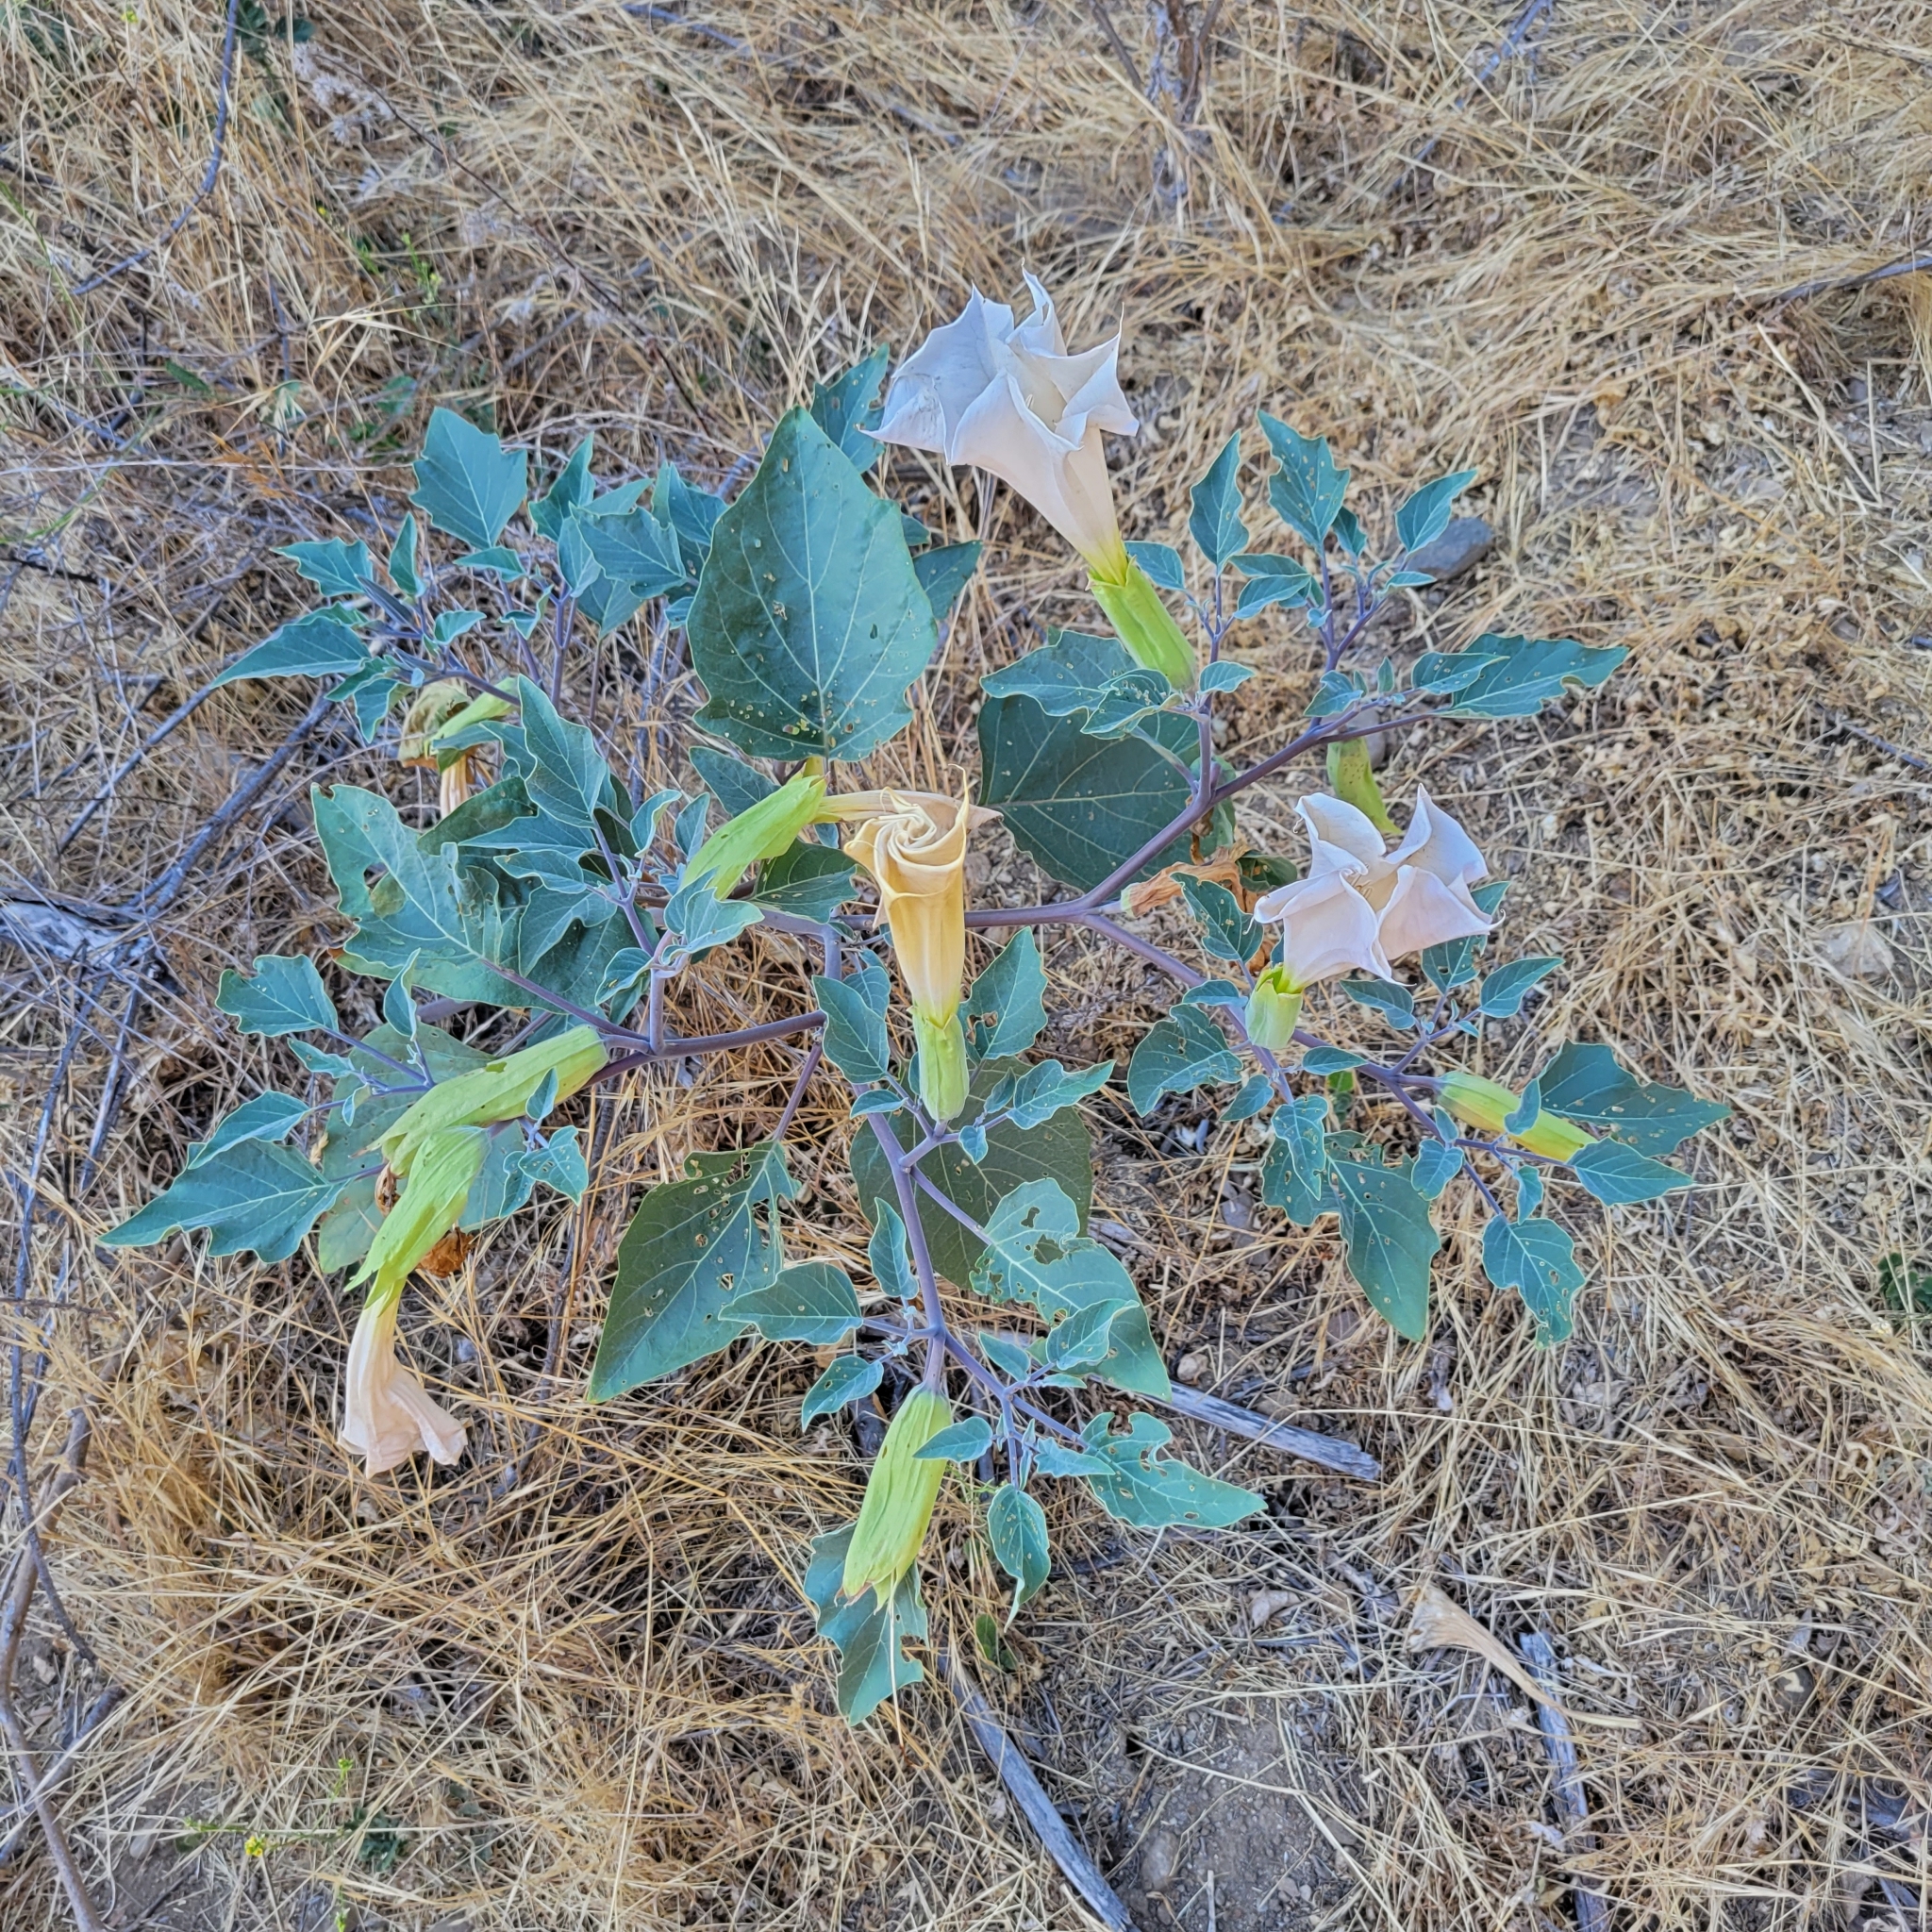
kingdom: Plantae
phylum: Tracheophyta
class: Magnoliopsida
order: Solanales
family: Solanaceae
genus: Datura
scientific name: Datura wrightii
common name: Sacred thorn-apple
